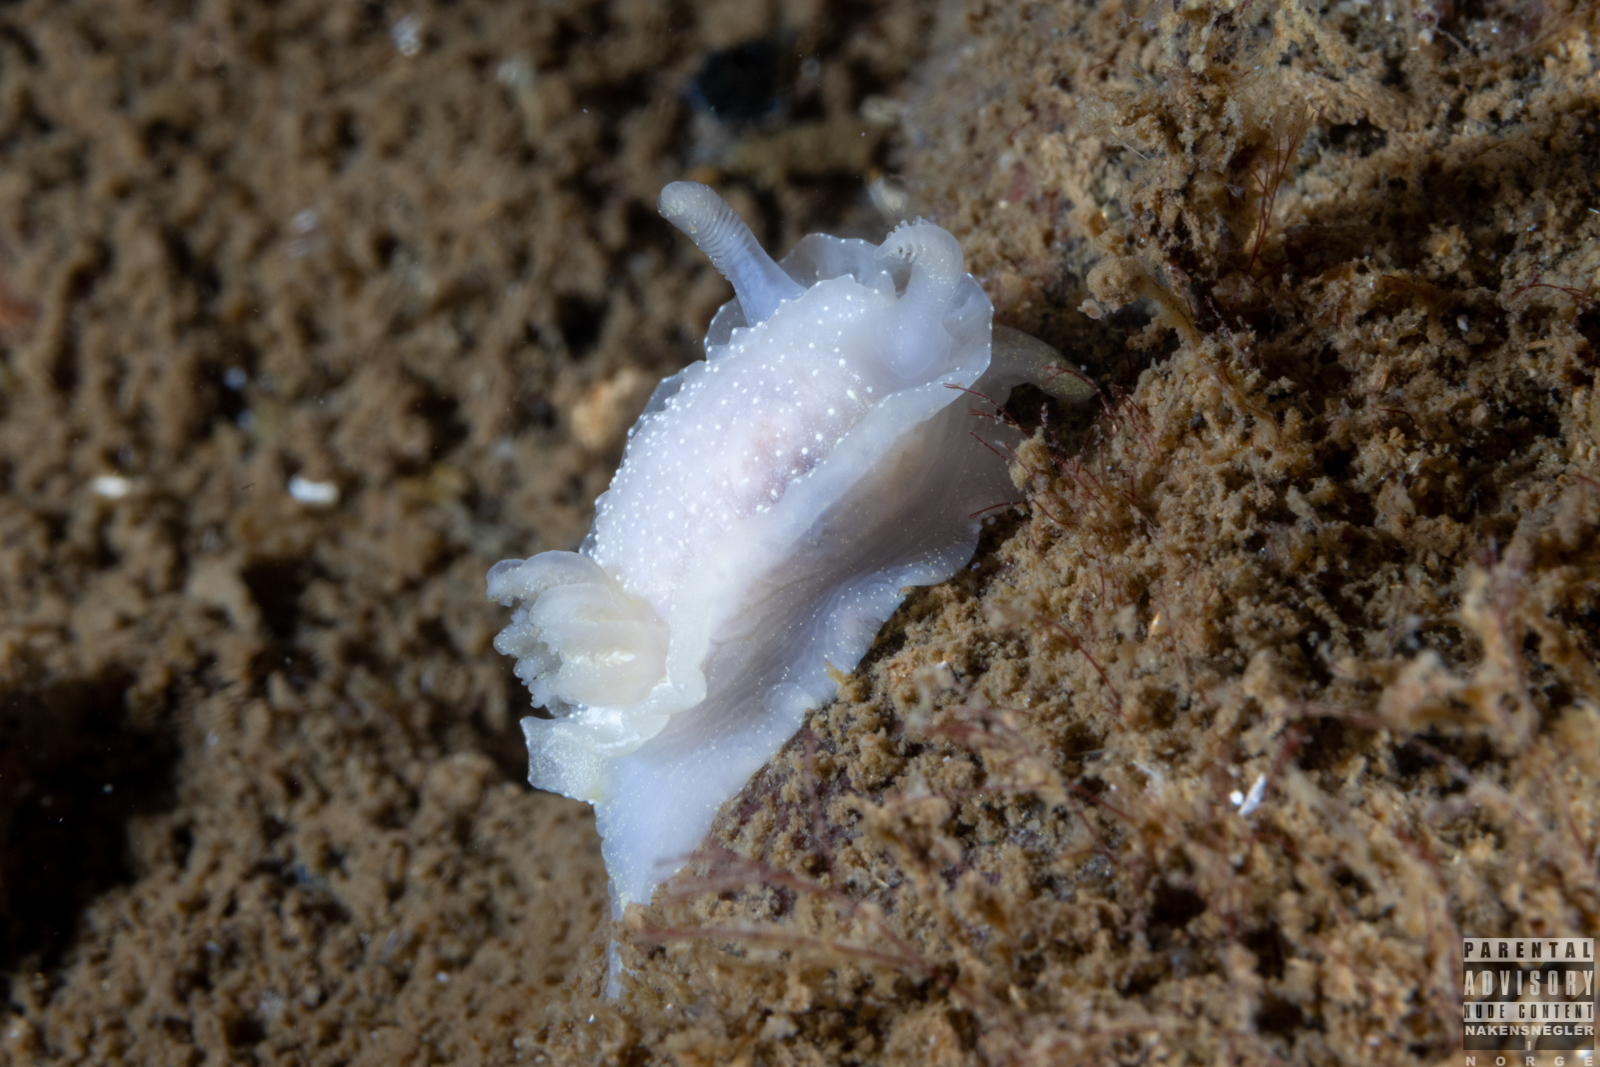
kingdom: Animalia
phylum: Mollusca
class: Gastropoda
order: Nudibranchia
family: Goniodorididae
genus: Okenia
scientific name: Okenia
